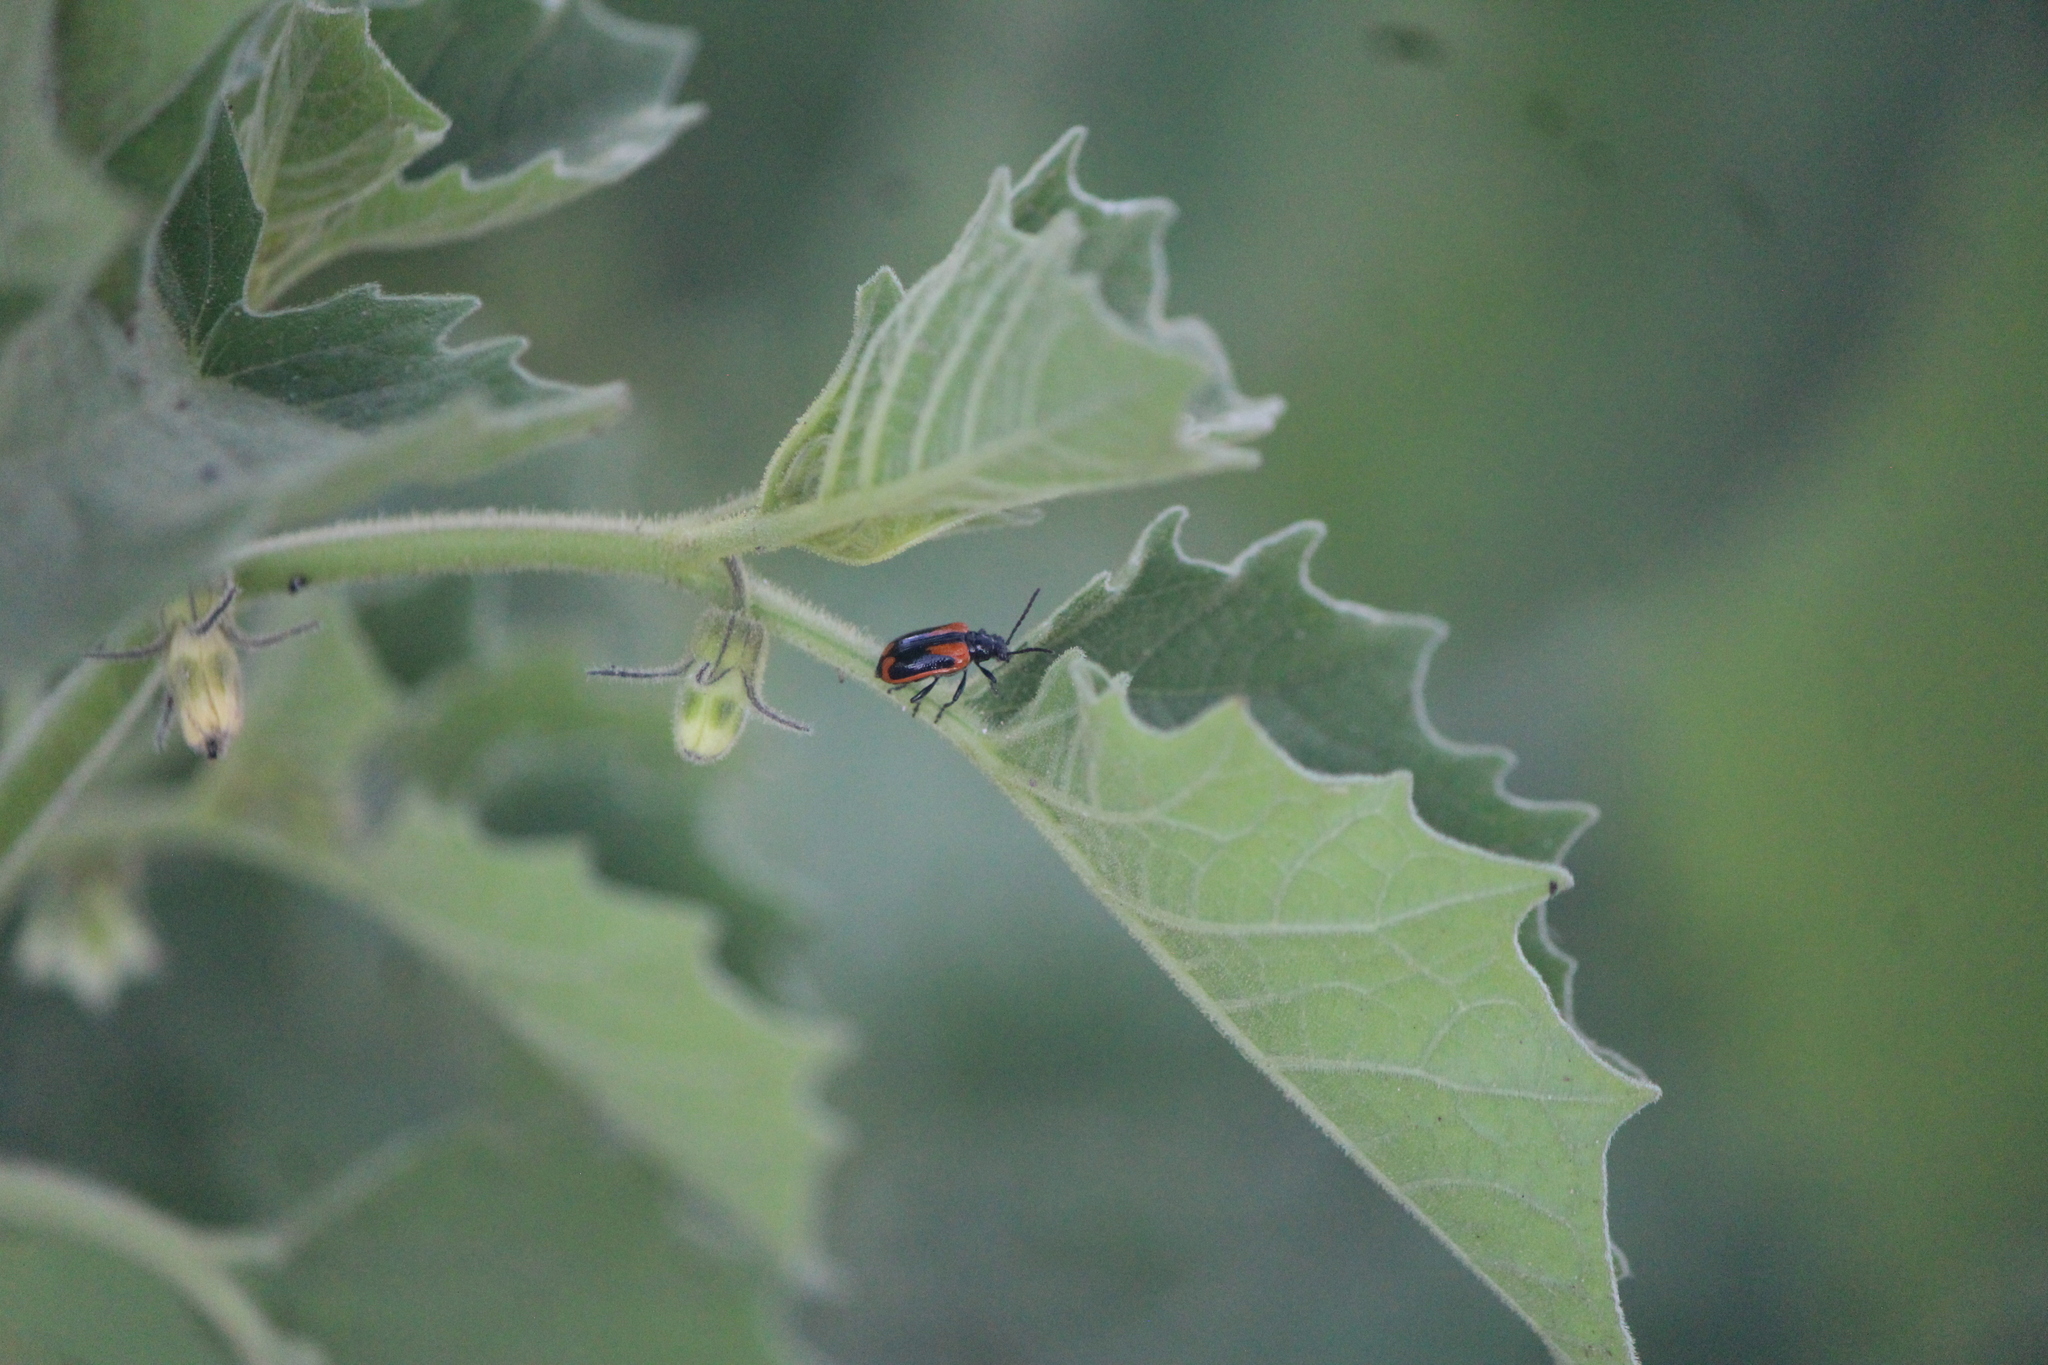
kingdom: Animalia
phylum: Arthropoda
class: Insecta
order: Coleoptera
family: Chrysomelidae
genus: Lema
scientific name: Lema confusa
